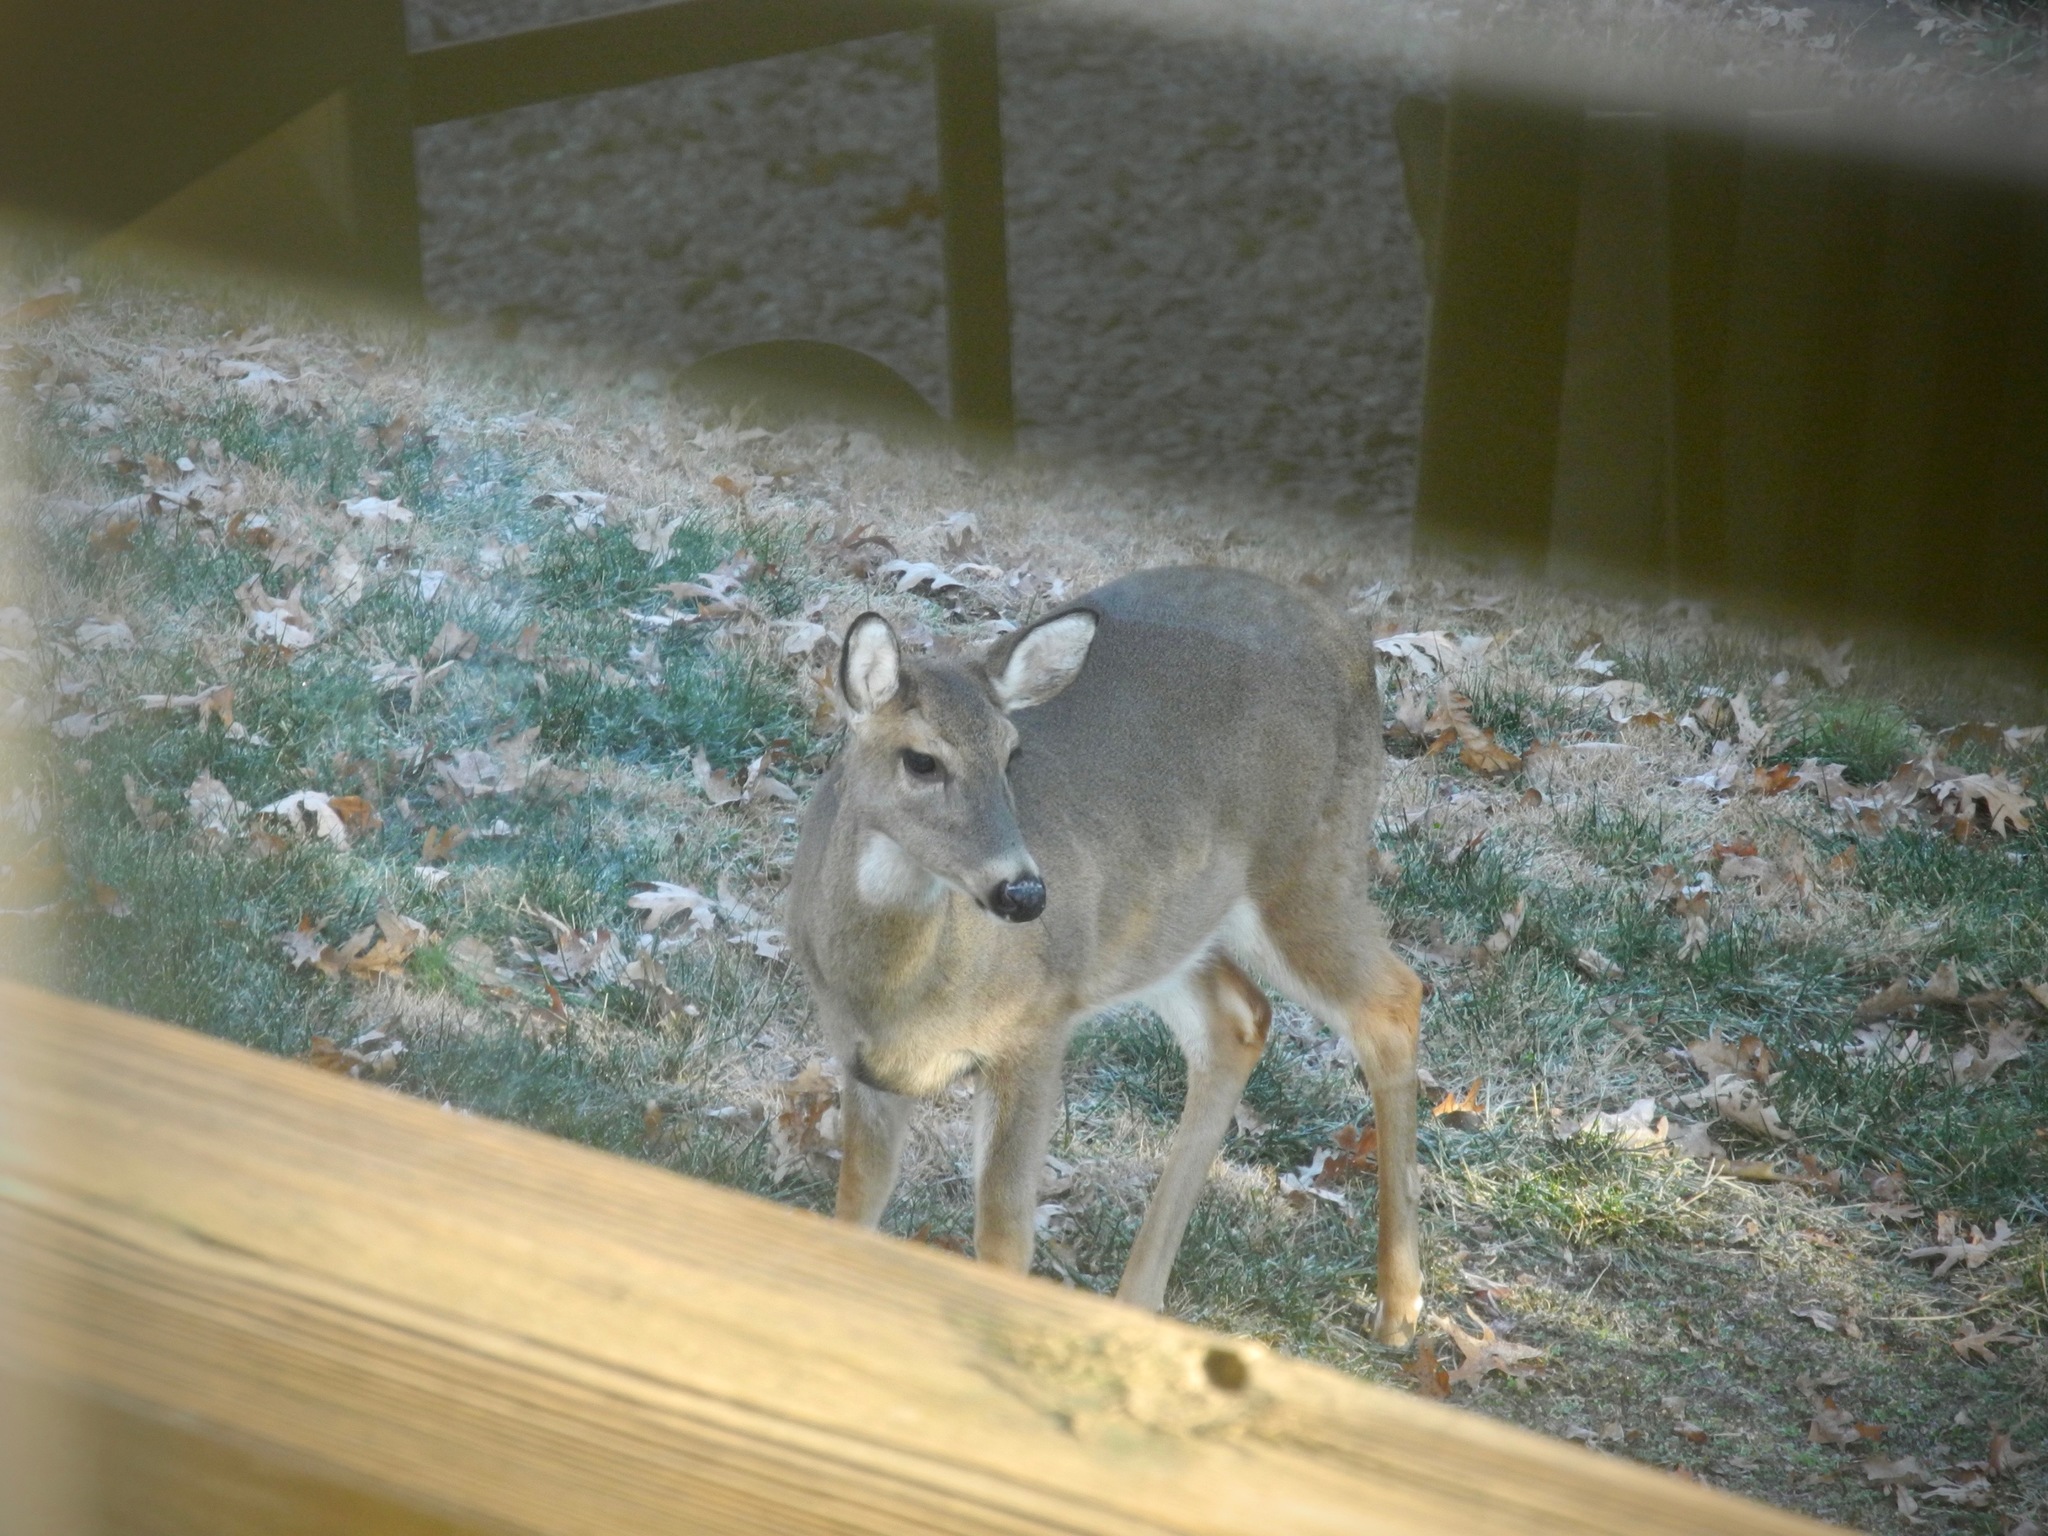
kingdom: Animalia
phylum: Chordata
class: Mammalia
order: Artiodactyla
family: Cervidae
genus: Odocoileus
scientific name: Odocoileus virginianus
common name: White-tailed deer
